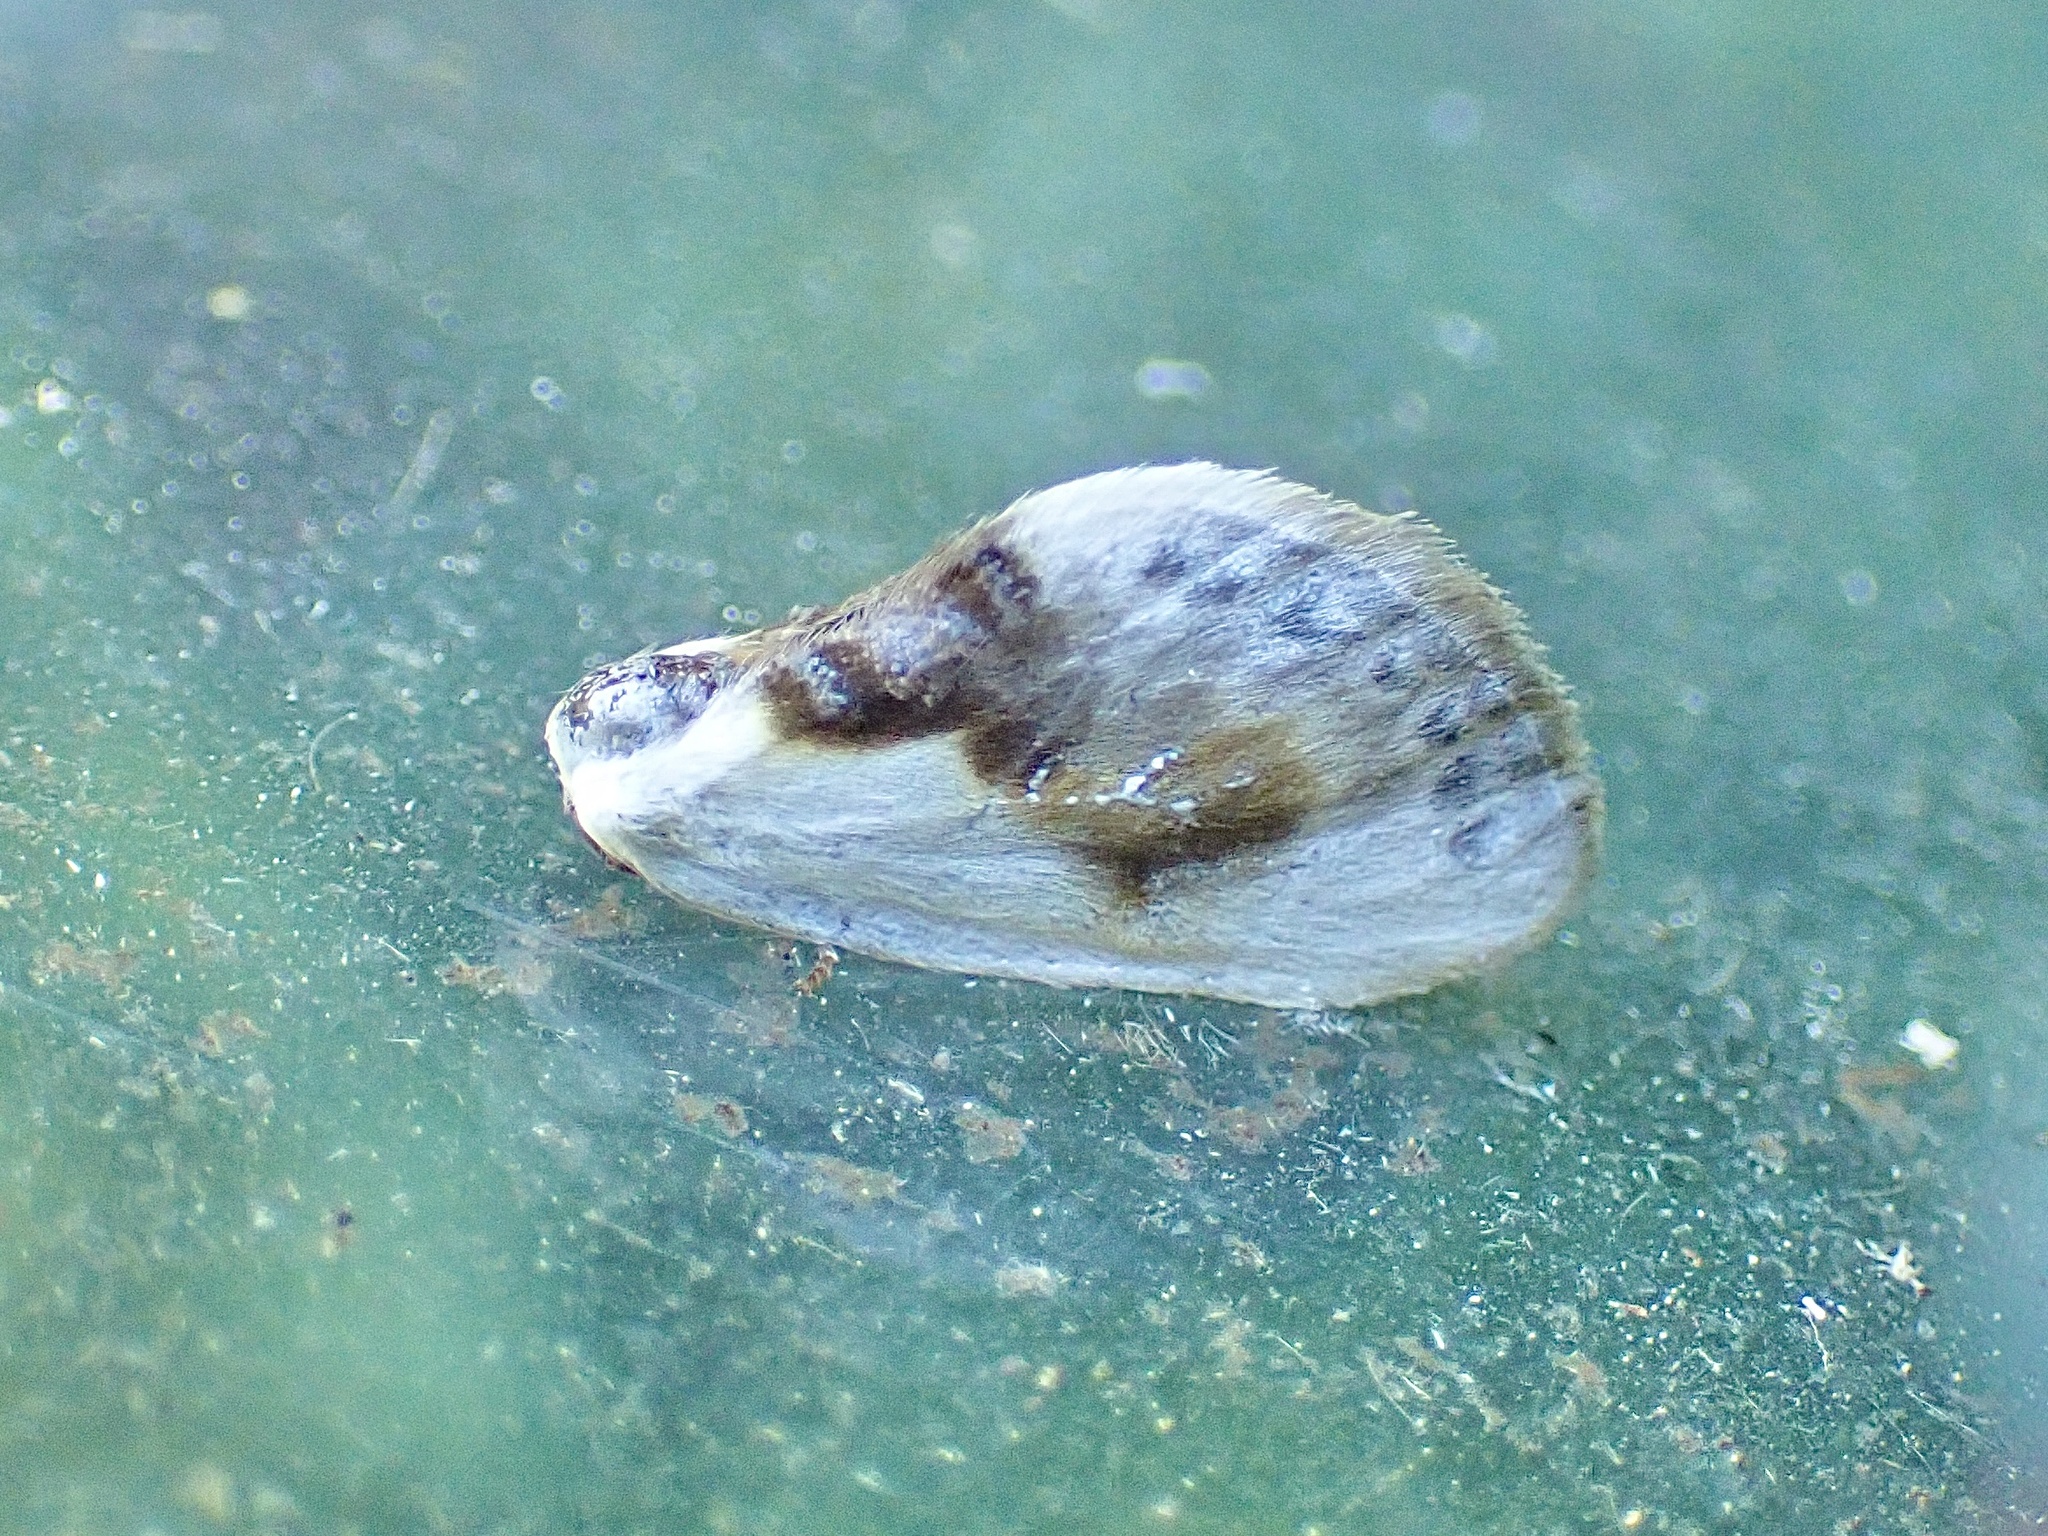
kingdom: Animalia
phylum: Arthropoda
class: Insecta
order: Lepidoptera
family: Drepanidae
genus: Cilix
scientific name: Cilix glaucata
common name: Chinese character
